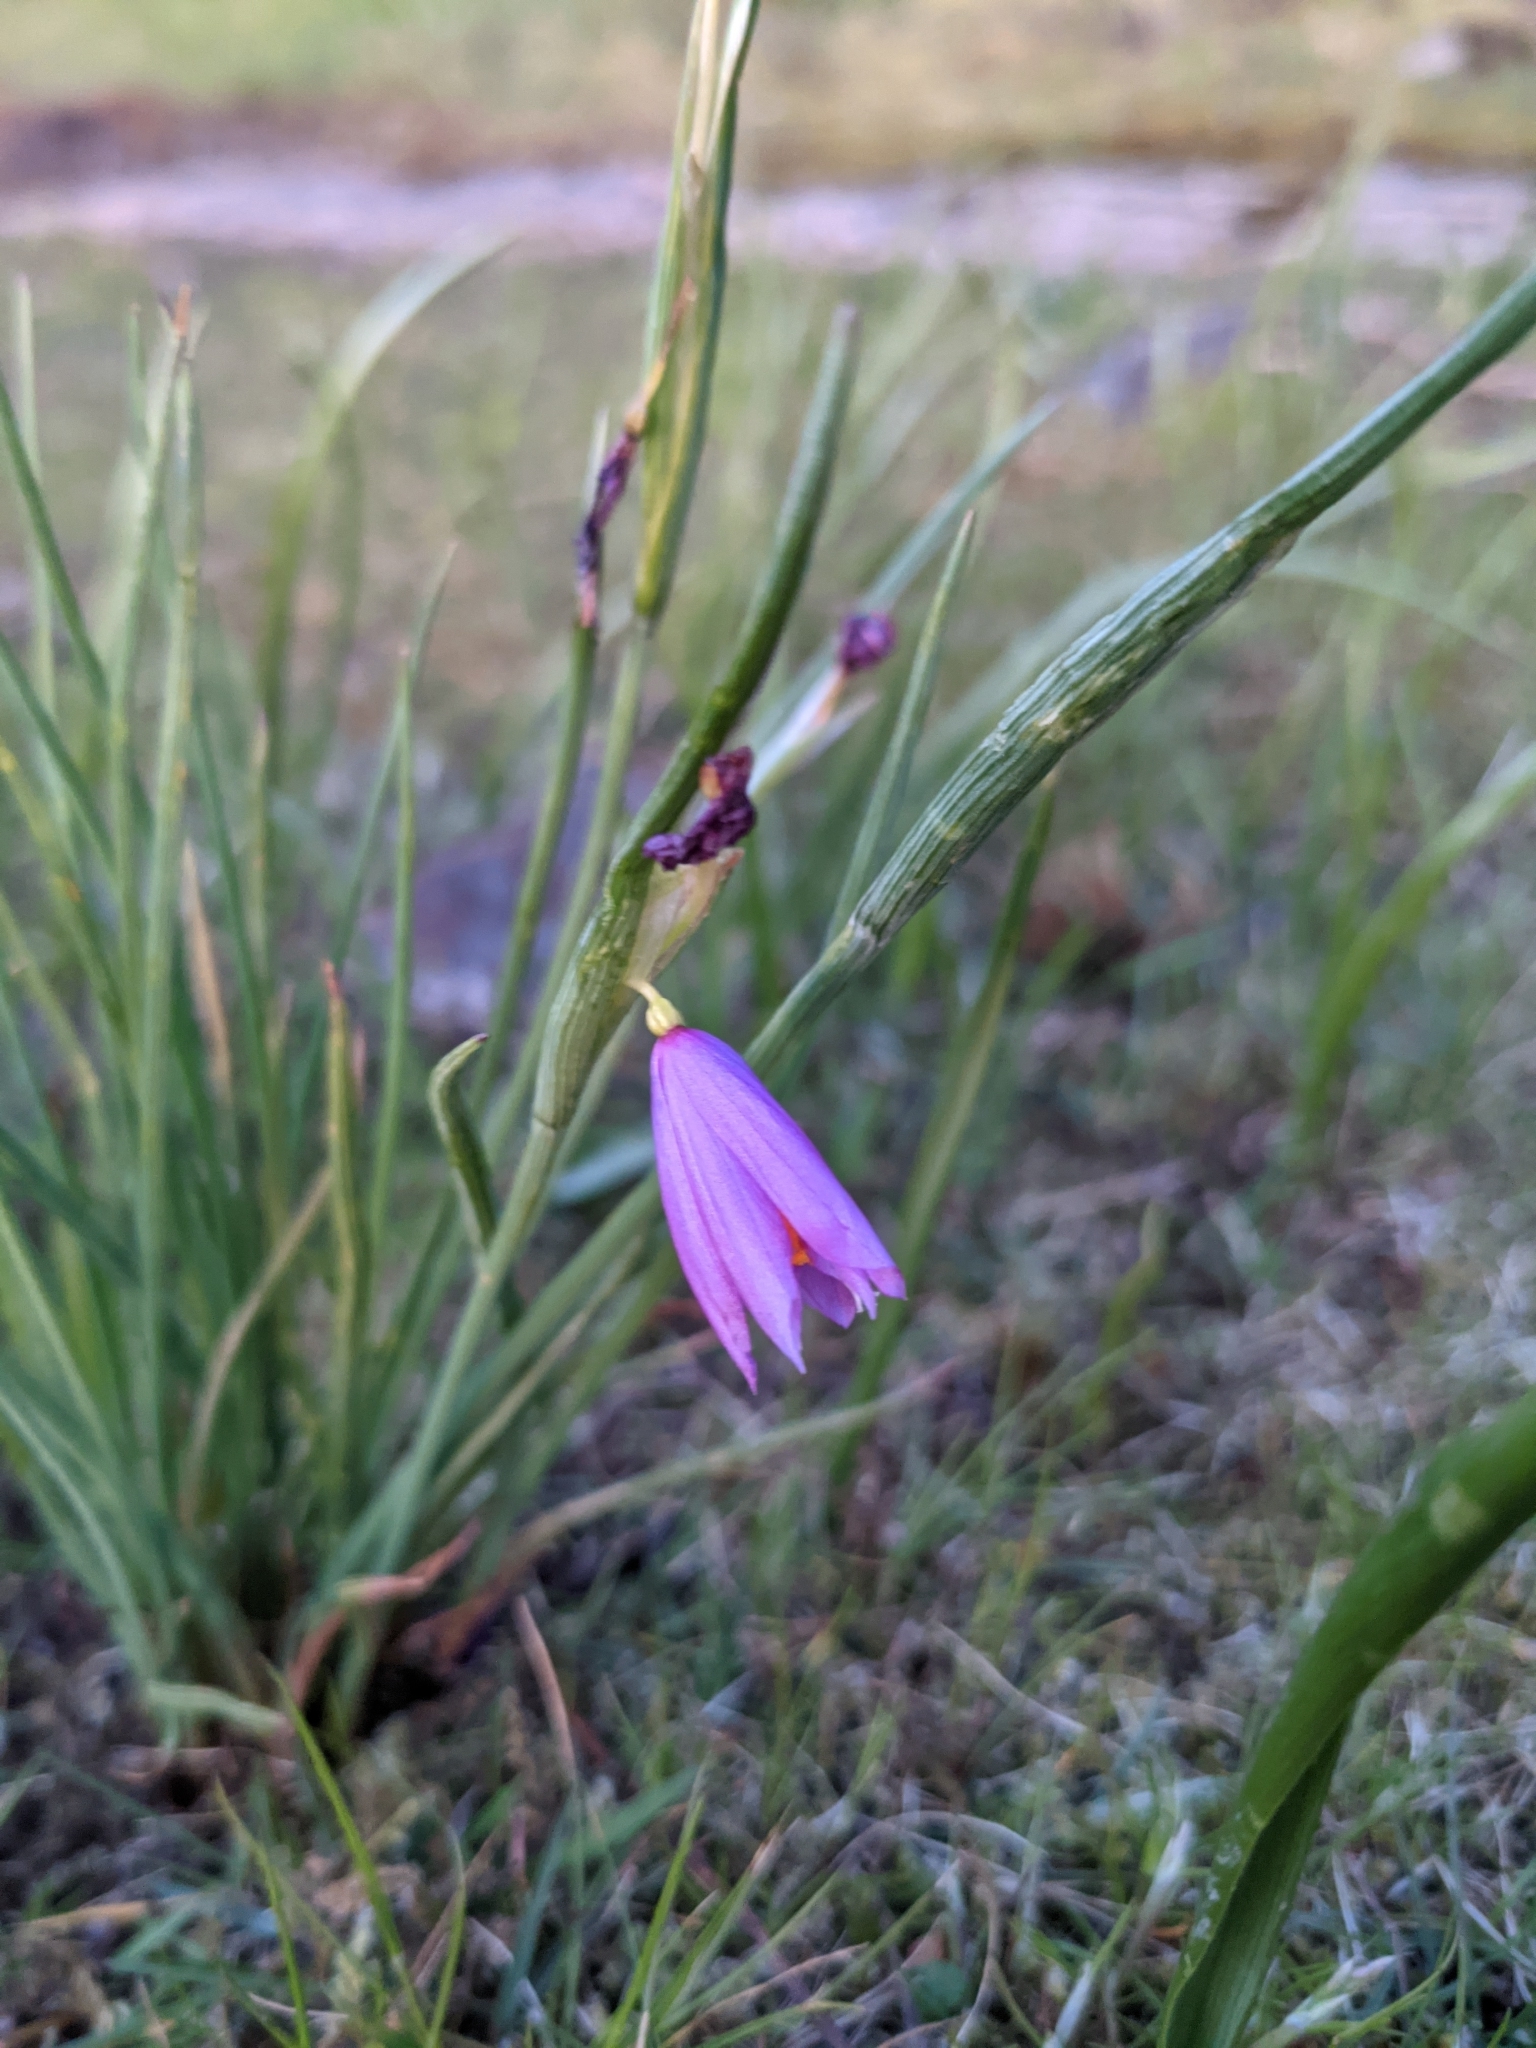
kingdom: Plantae
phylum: Tracheophyta
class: Liliopsida
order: Asparagales
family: Iridaceae
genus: Olsynium
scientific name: Olsynium douglasii
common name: Douglas' grasswidow
